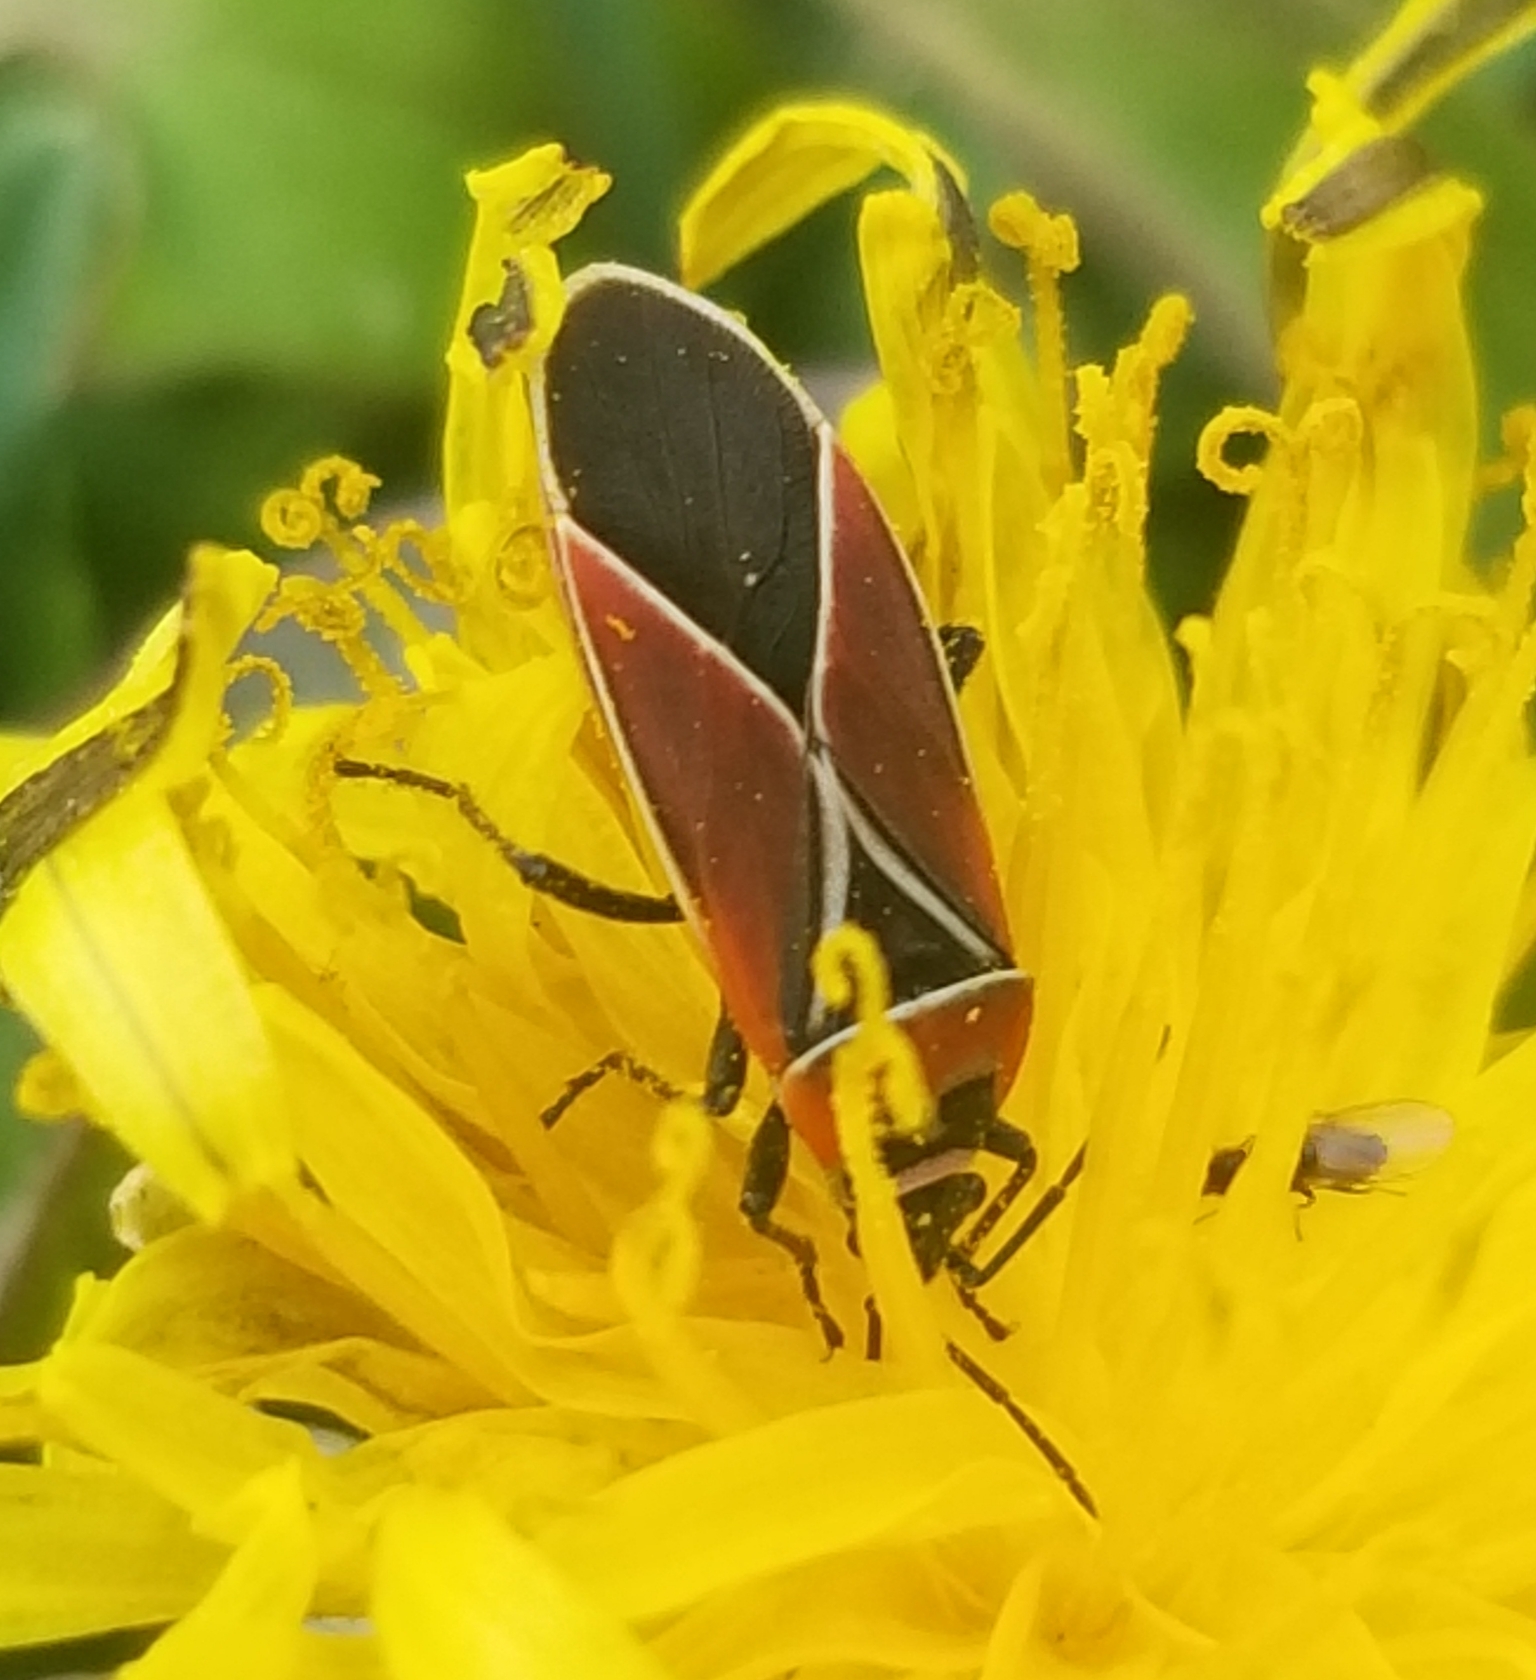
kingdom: Animalia
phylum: Arthropoda
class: Insecta
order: Hemiptera
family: Lygaeidae
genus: Neacoryphus
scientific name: Neacoryphus bicrucis
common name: Lygaeid bug
